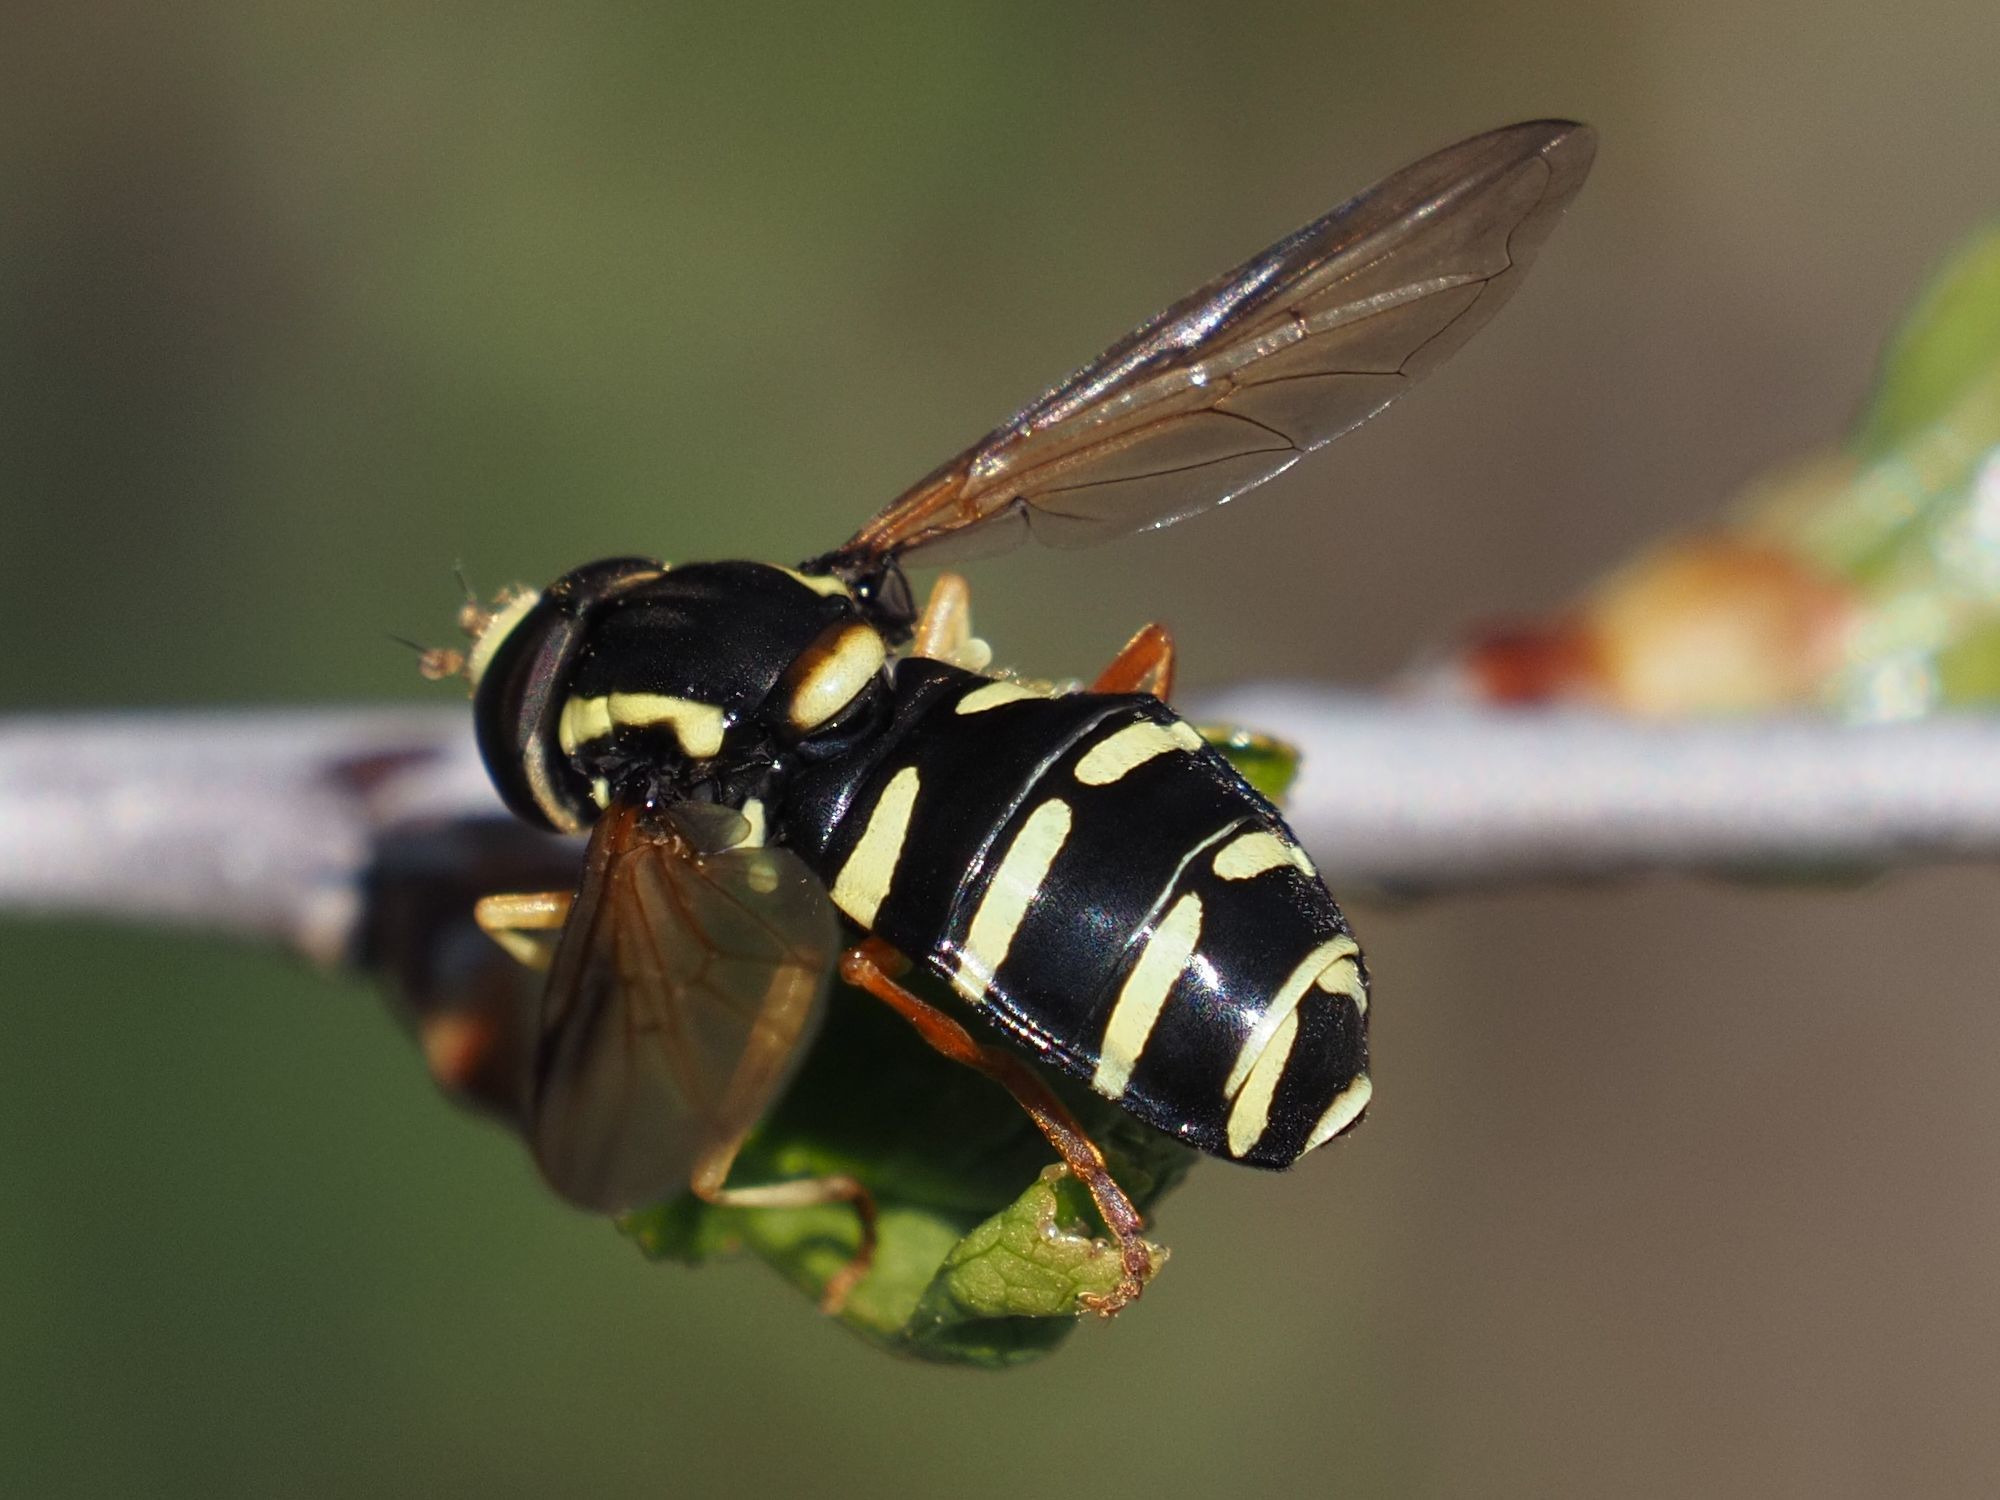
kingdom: Animalia
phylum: Arthropoda
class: Insecta
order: Diptera
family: Syrphidae
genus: Philhelius
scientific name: Philhelius citrofasciata
